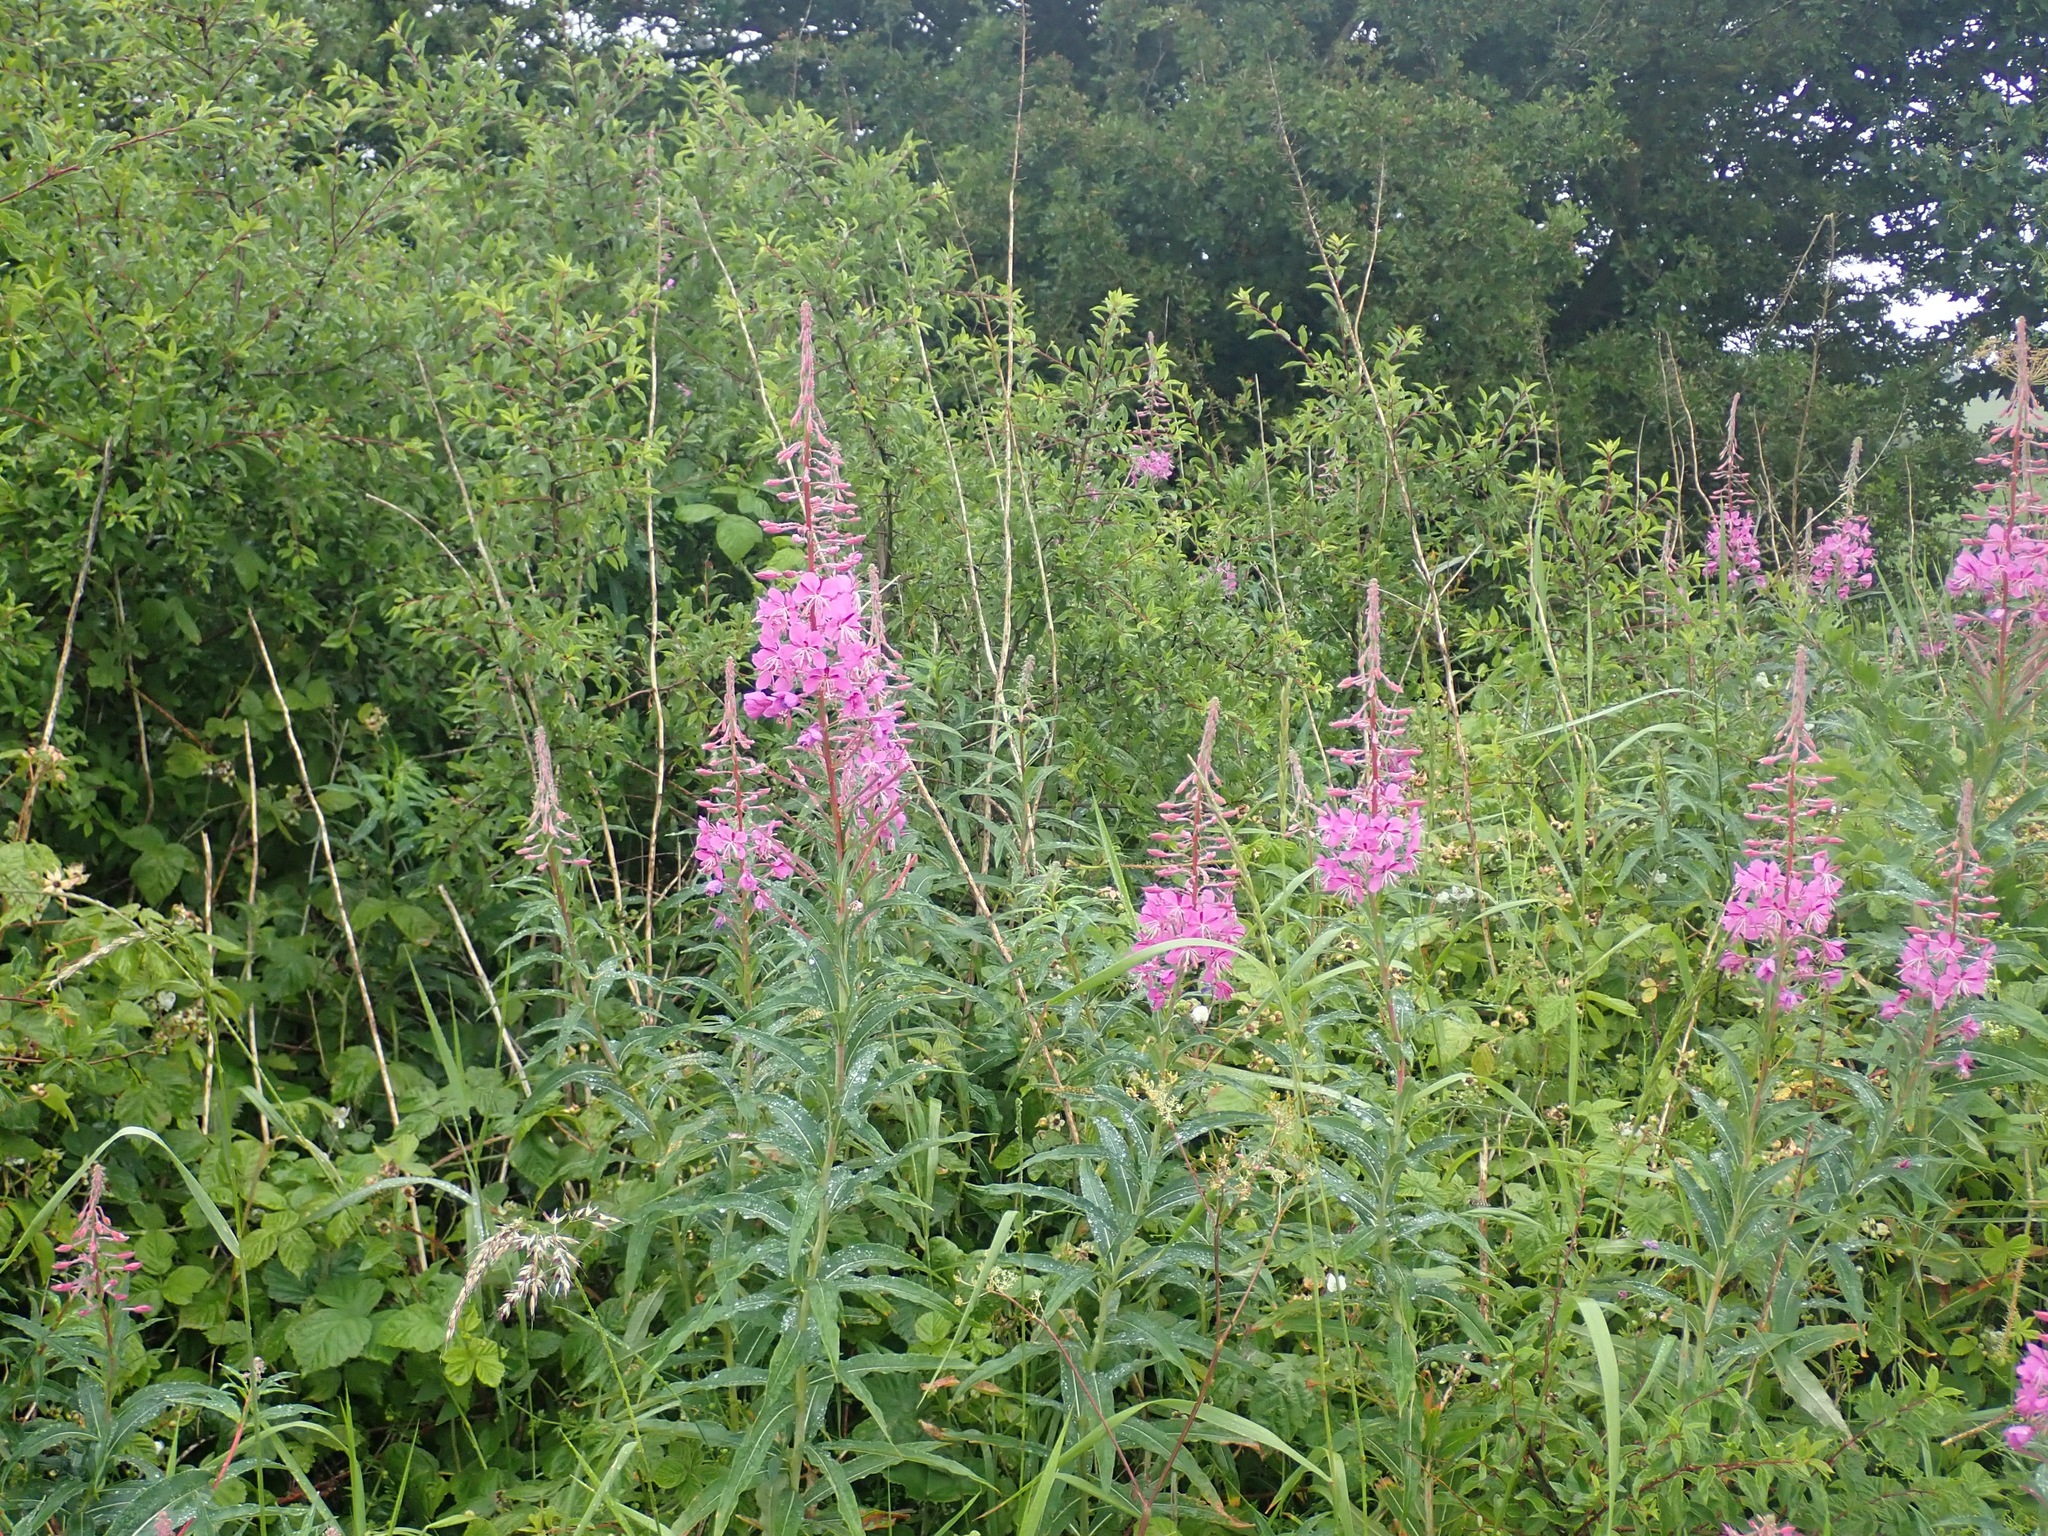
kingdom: Plantae
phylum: Tracheophyta
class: Magnoliopsida
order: Myrtales
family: Onagraceae
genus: Chamaenerion
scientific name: Chamaenerion angustifolium
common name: Fireweed
